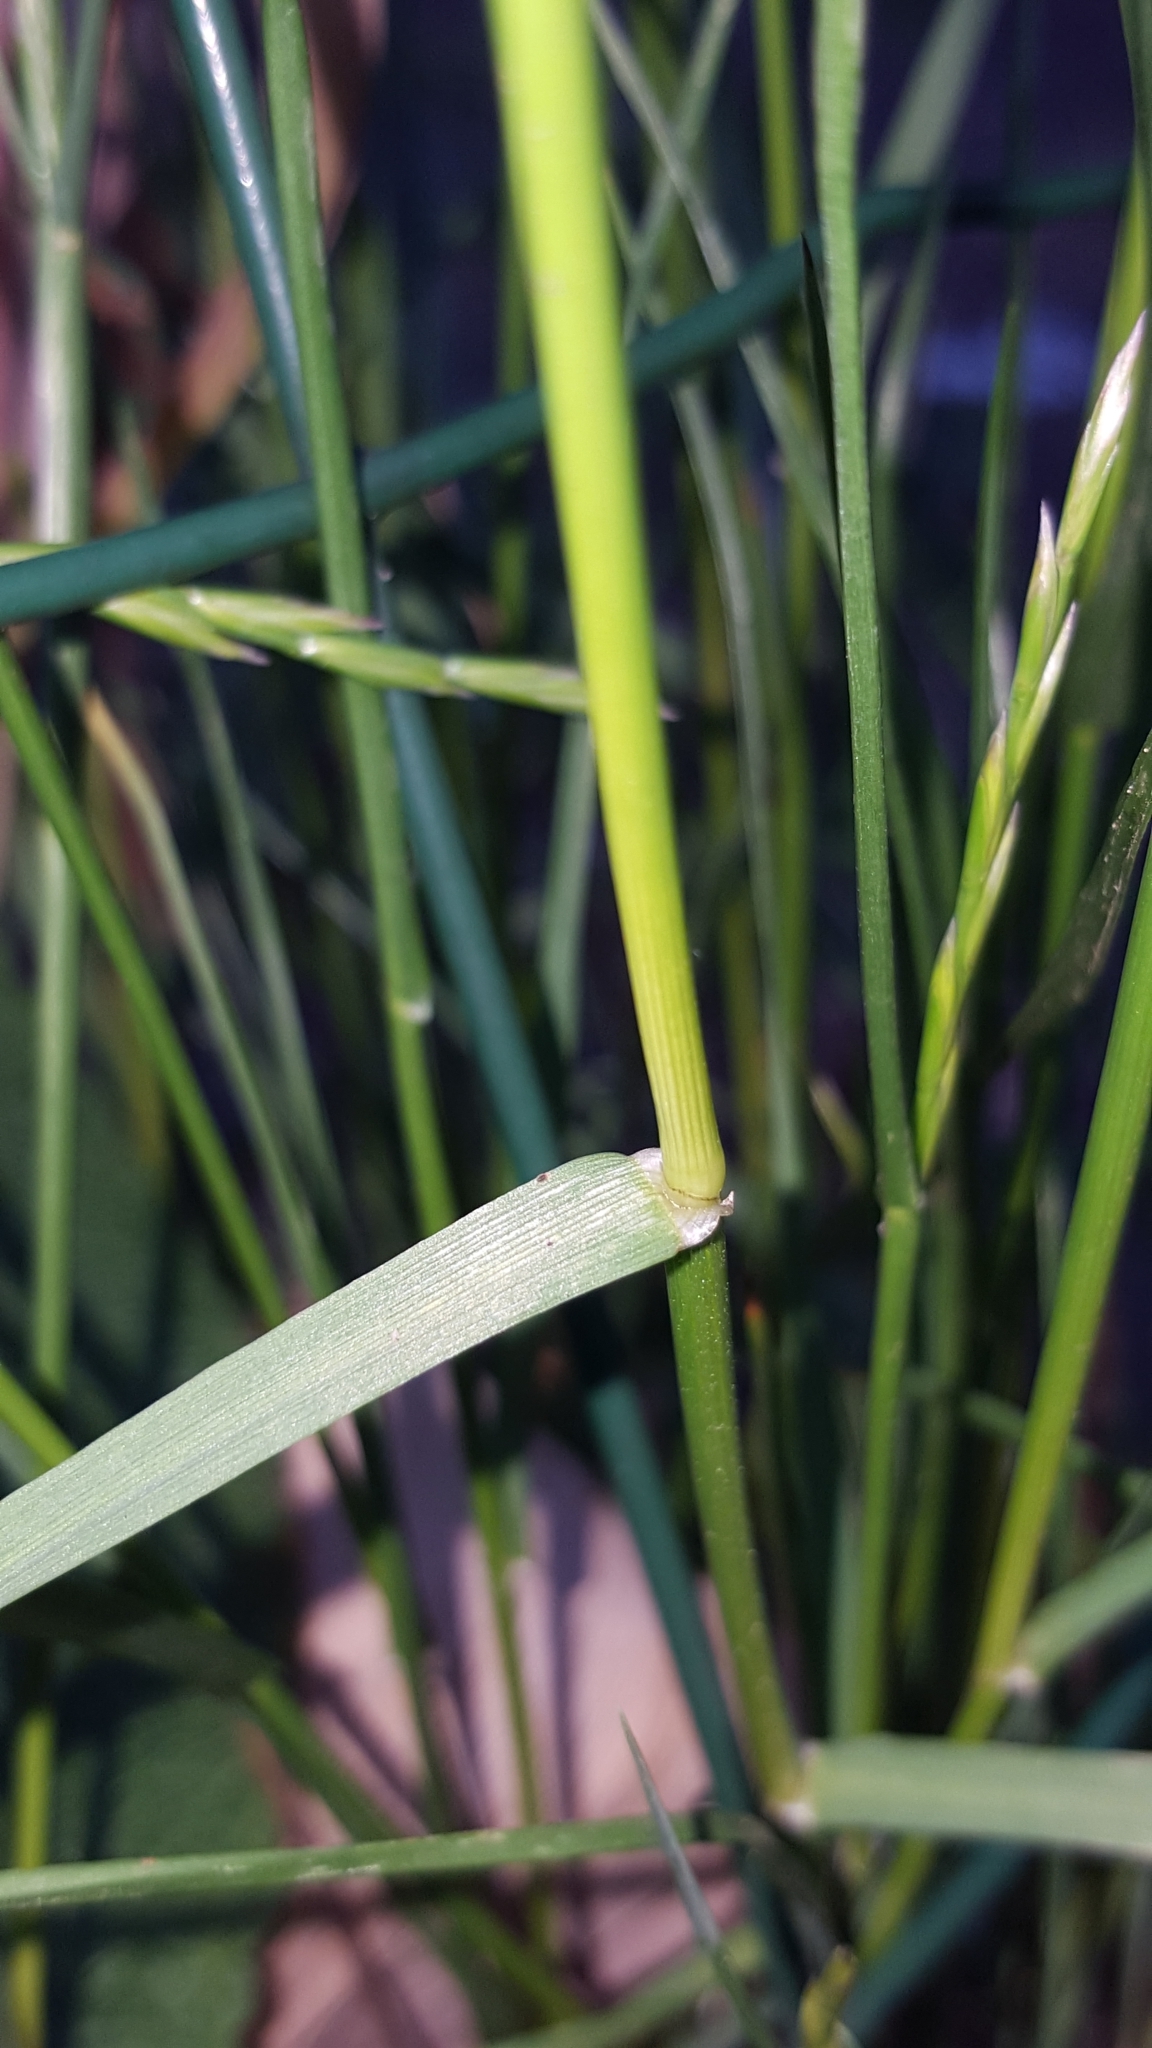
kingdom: Plantae
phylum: Tracheophyta
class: Liliopsida
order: Poales
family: Poaceae
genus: Lolium
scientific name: Lolium perenne
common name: Perennial ryegrass
